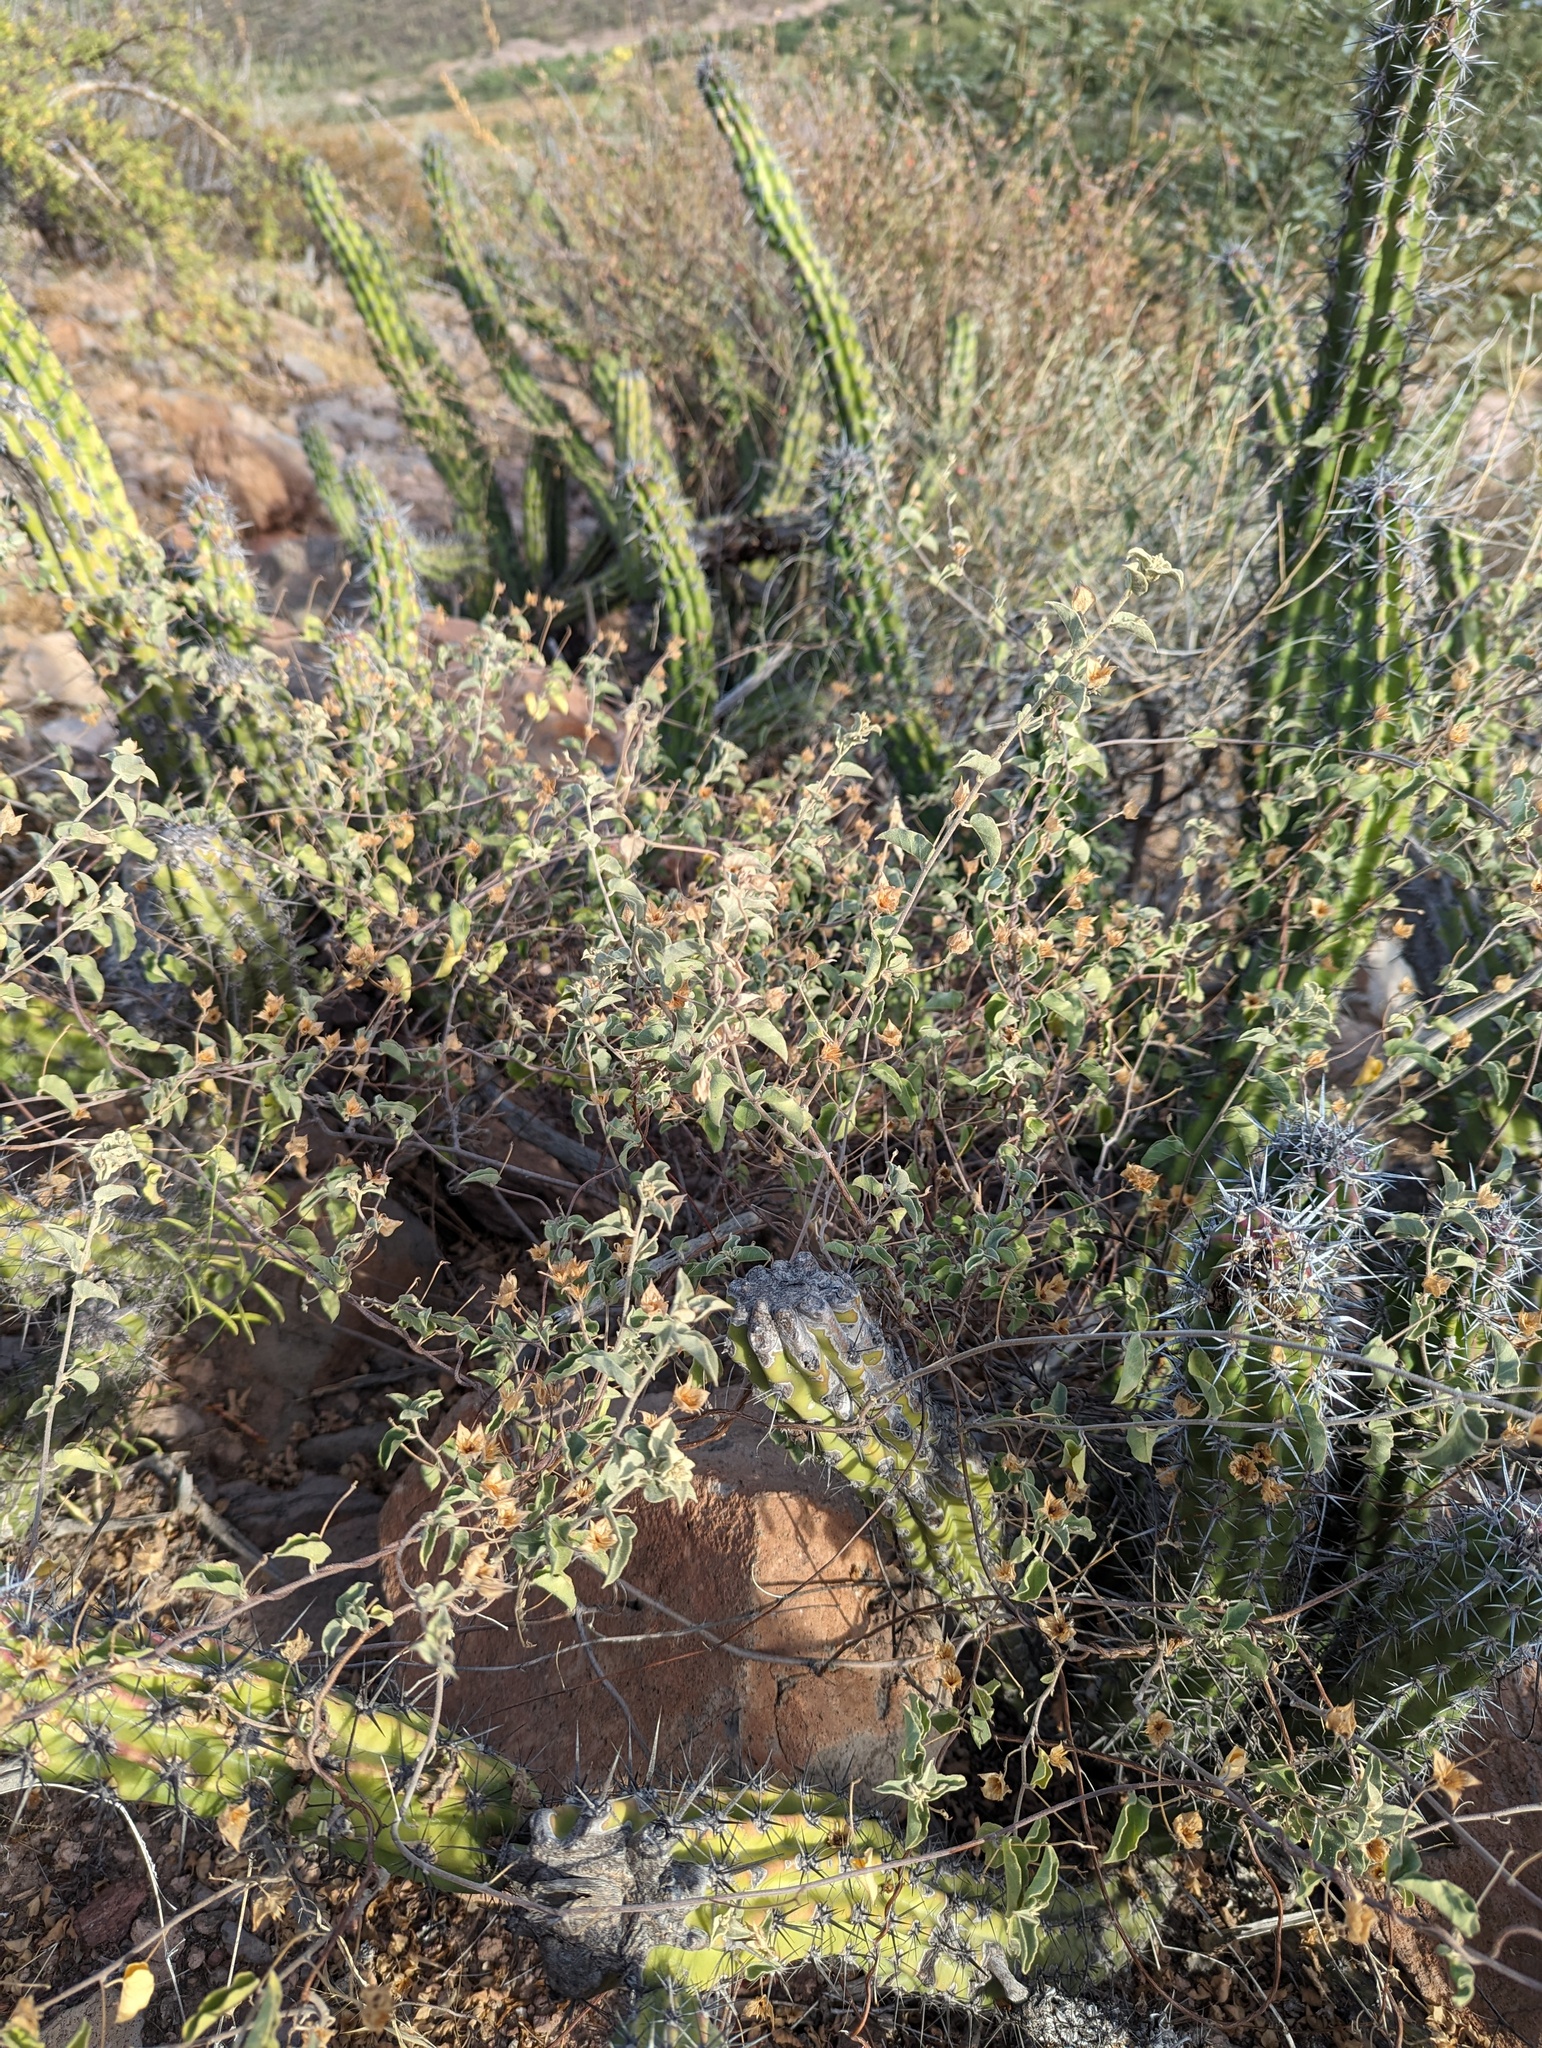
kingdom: Plantae
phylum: Tracheophyta
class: Magnoliopsida
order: Solanales
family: Convolvulaceae
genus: Jacquemontia
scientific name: Jacquemontia abutiloides
